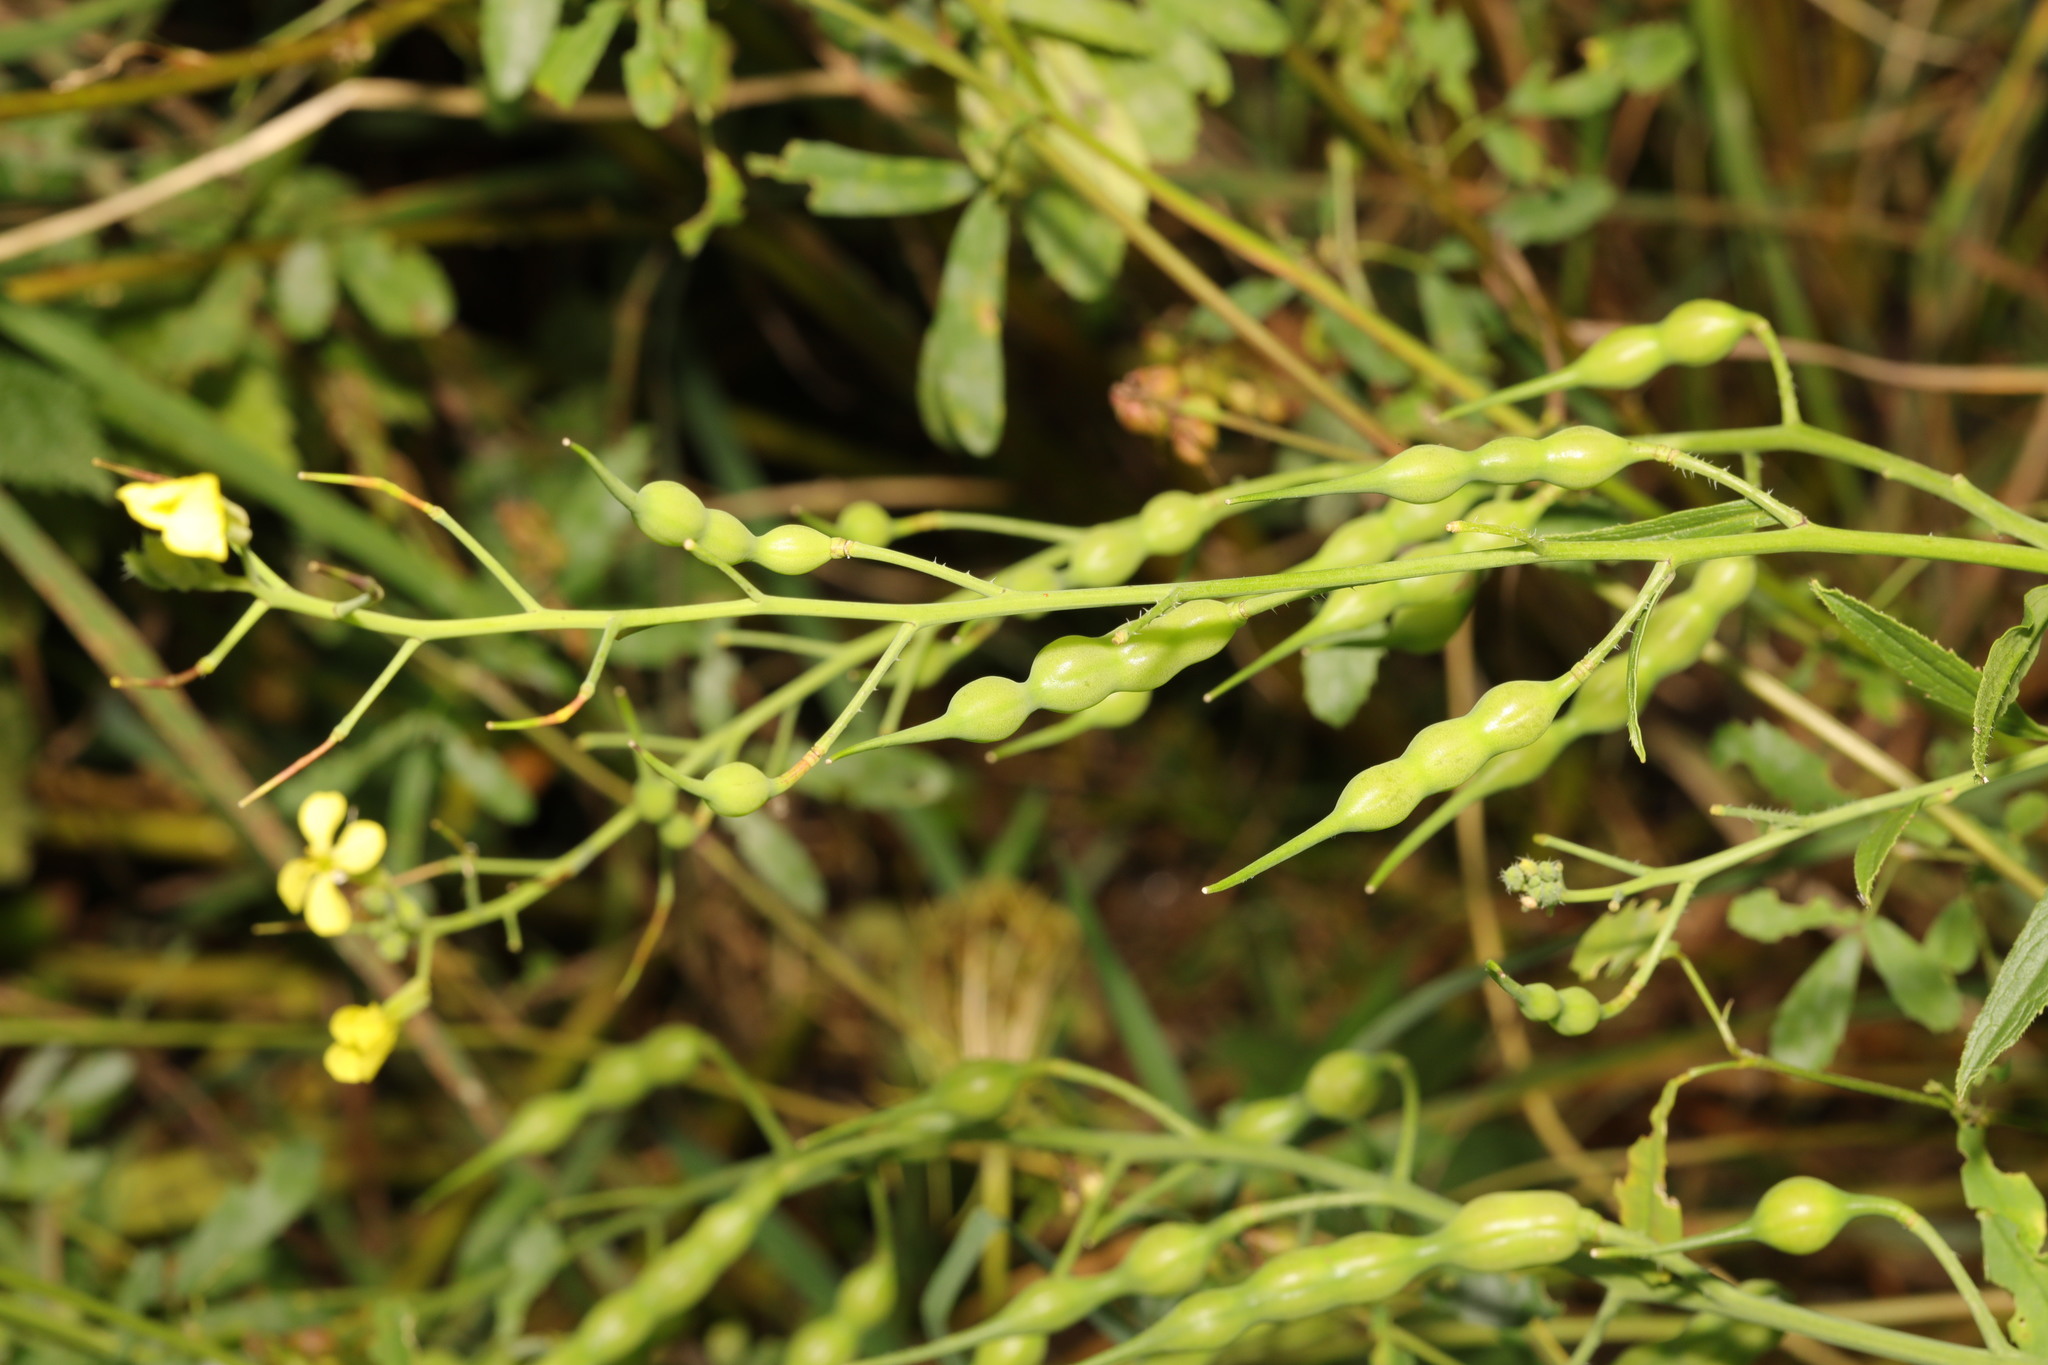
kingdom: Plantae
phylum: Tracheophyta
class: Magnoliopsida
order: Brassicales
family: Brassicaceae
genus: Raphanus
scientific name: Raphanus raphanistrum
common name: Wild radish
